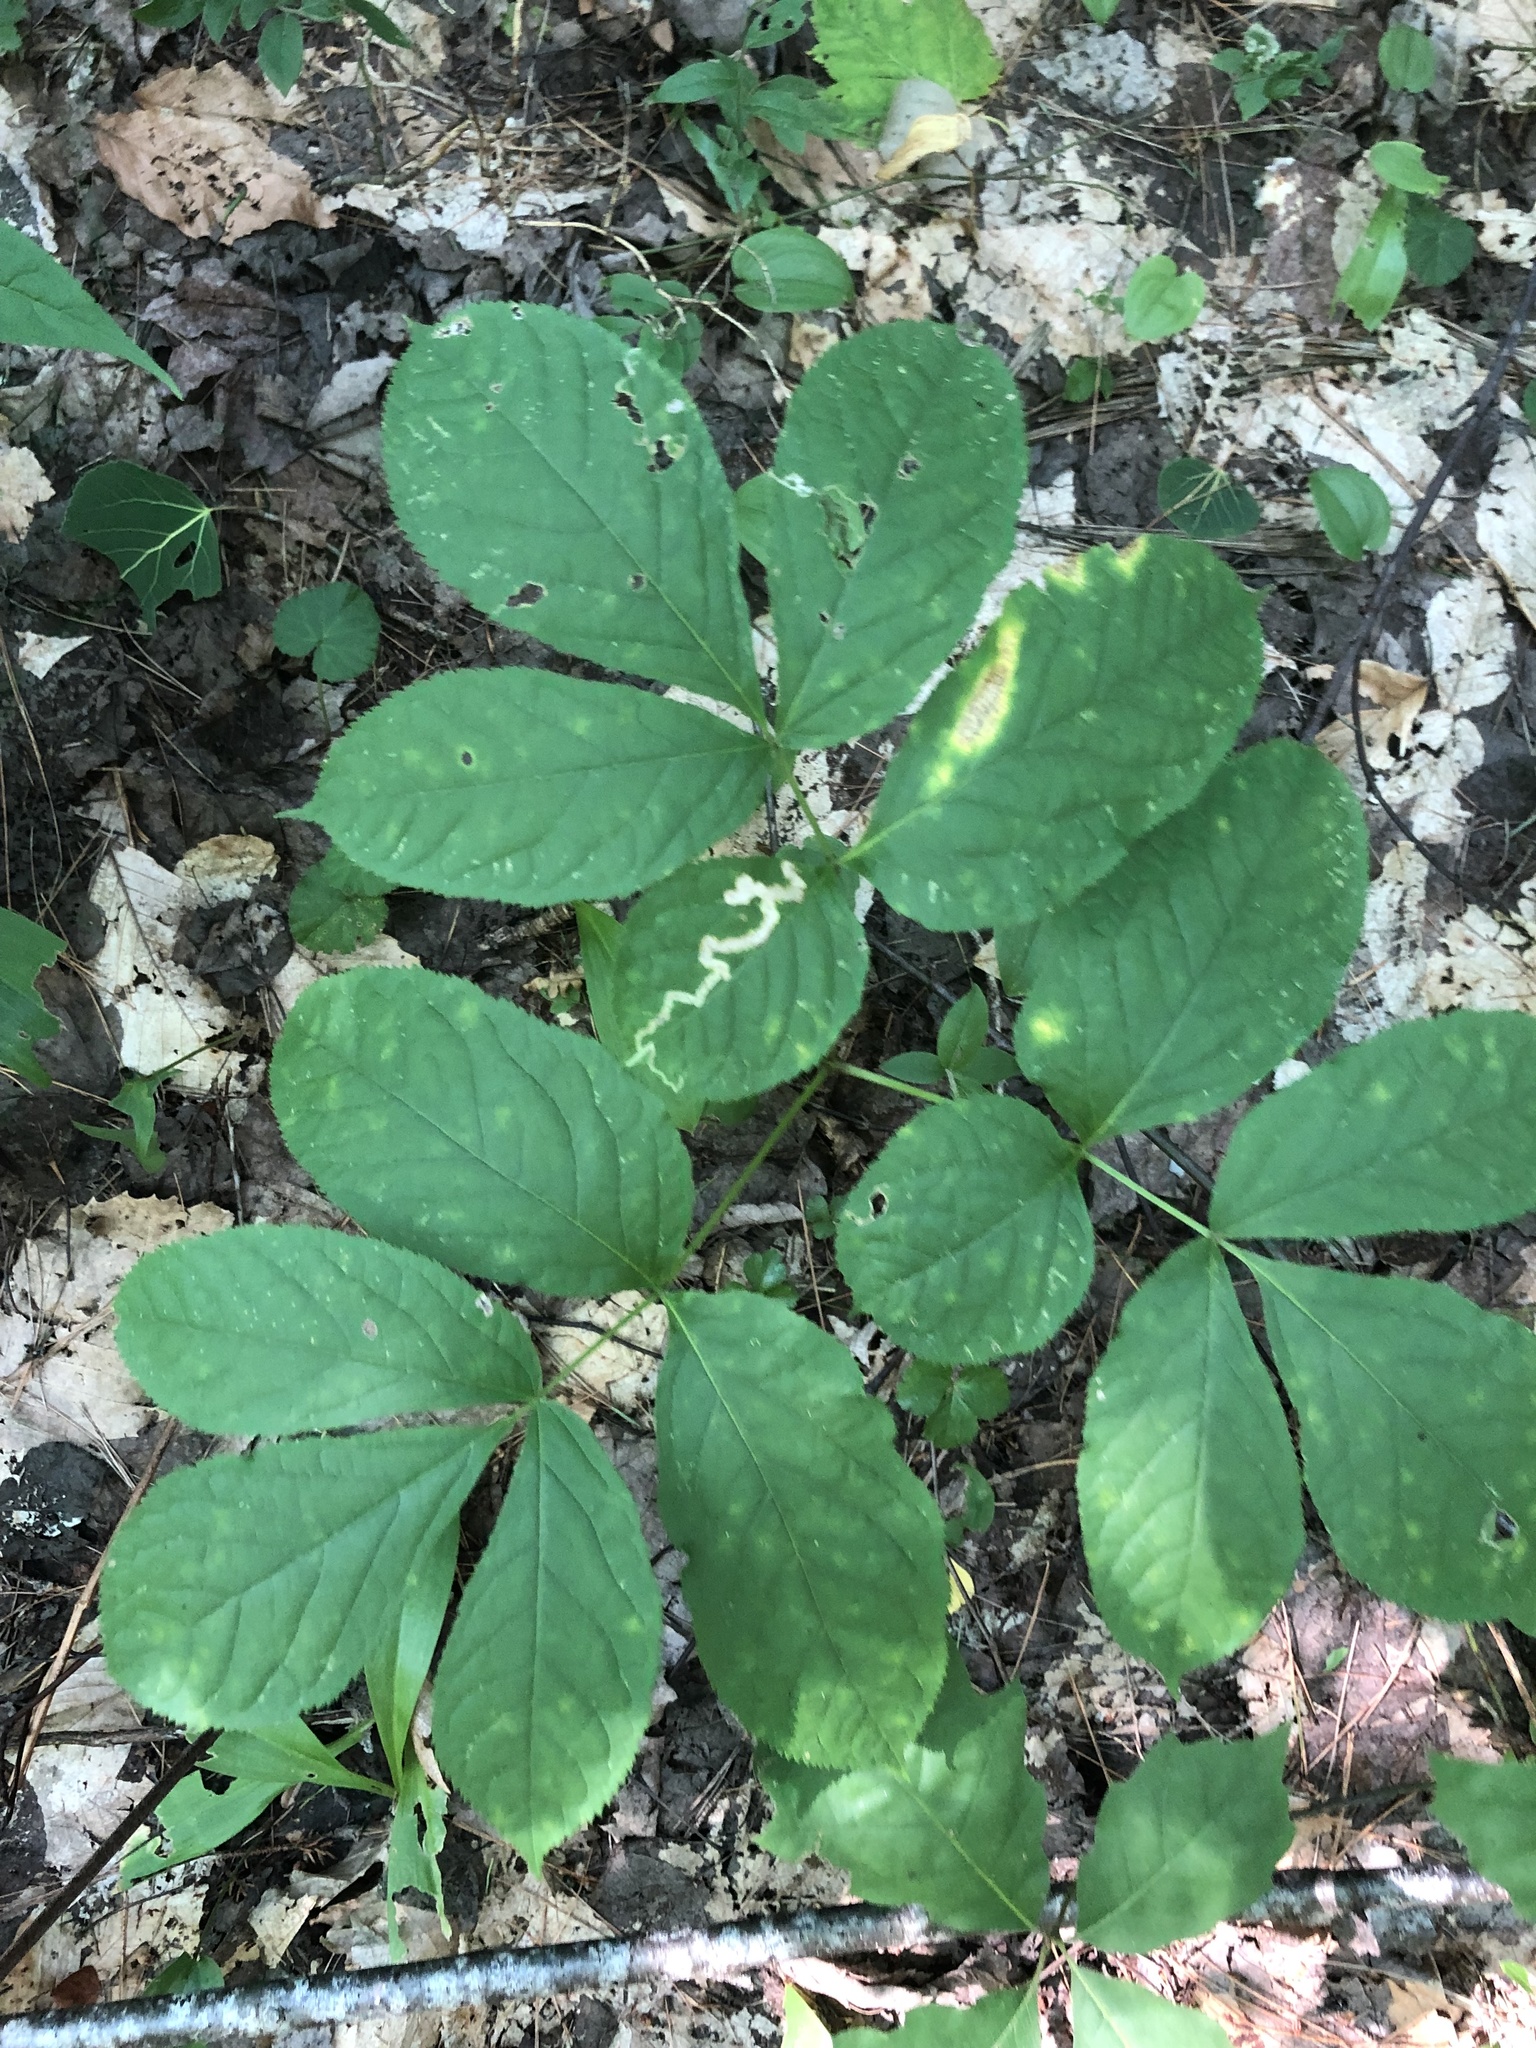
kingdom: Plantae
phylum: Tracheophyta
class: Magnoliopsida
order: Apiales
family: Araliaceae
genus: Aralia
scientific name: Aralia nudicaulis
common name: Wild sarsaparilla
